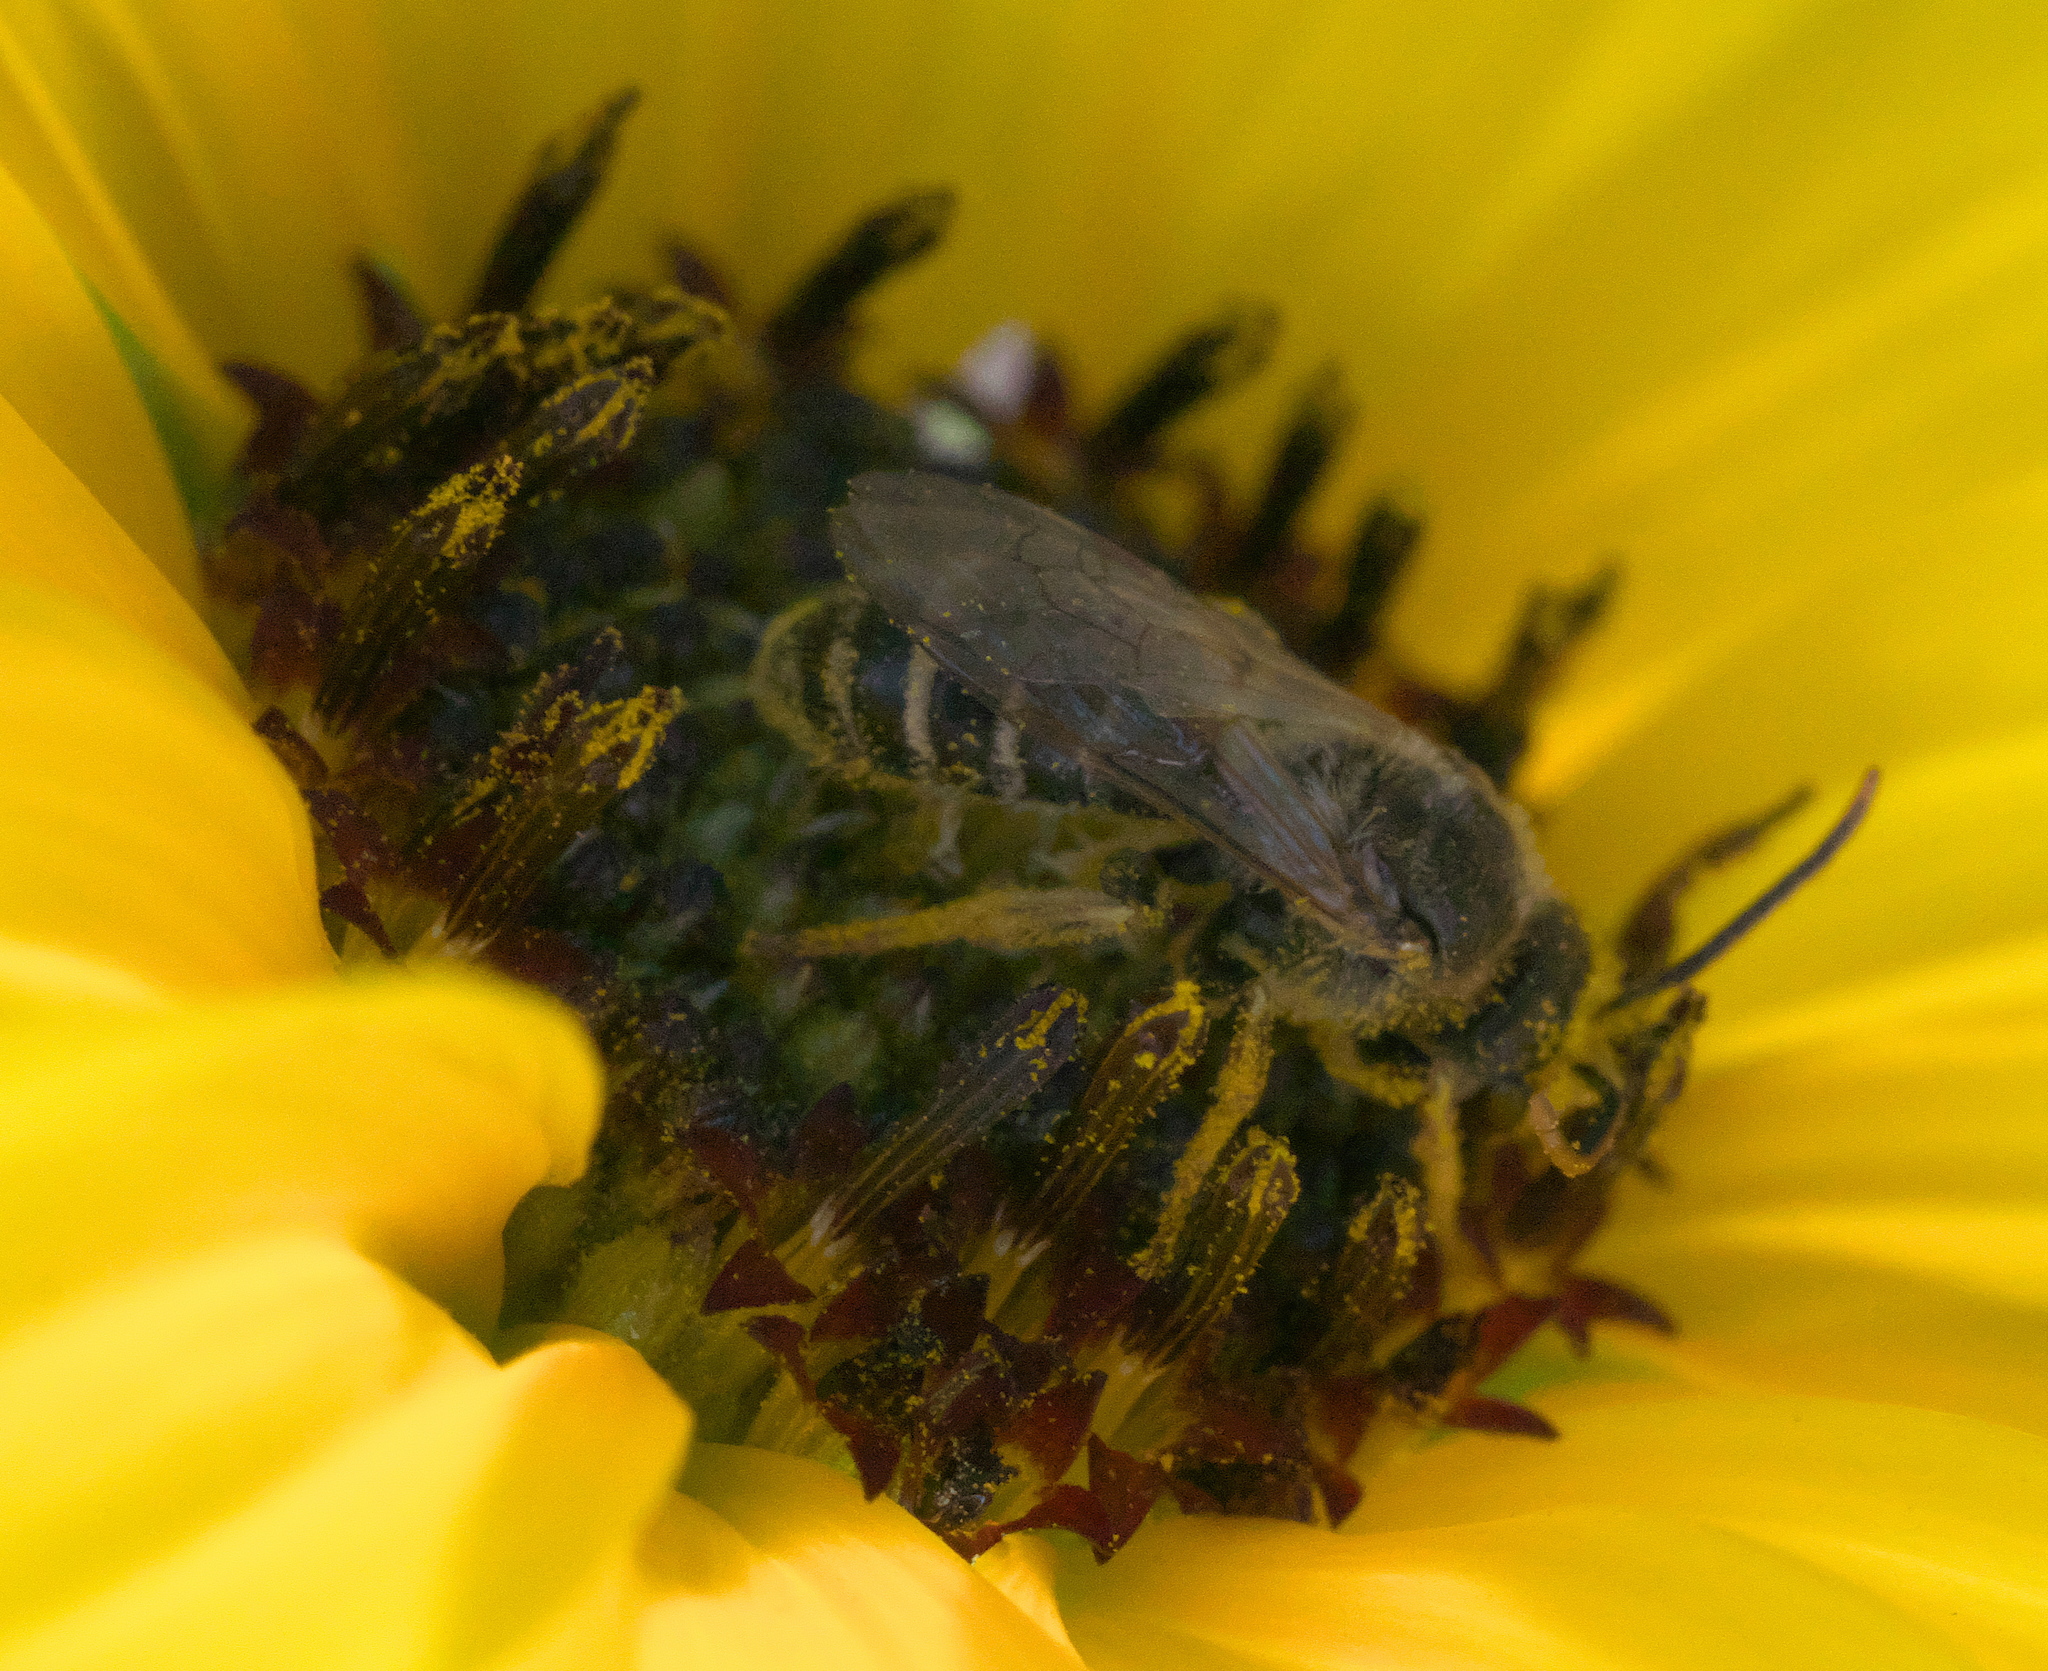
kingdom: Animalia
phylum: Arthropoda
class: Insecta
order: Hymenoptera
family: Halictidae
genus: Halictus
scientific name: Halictus ligatus
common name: Ligated furrow bee
